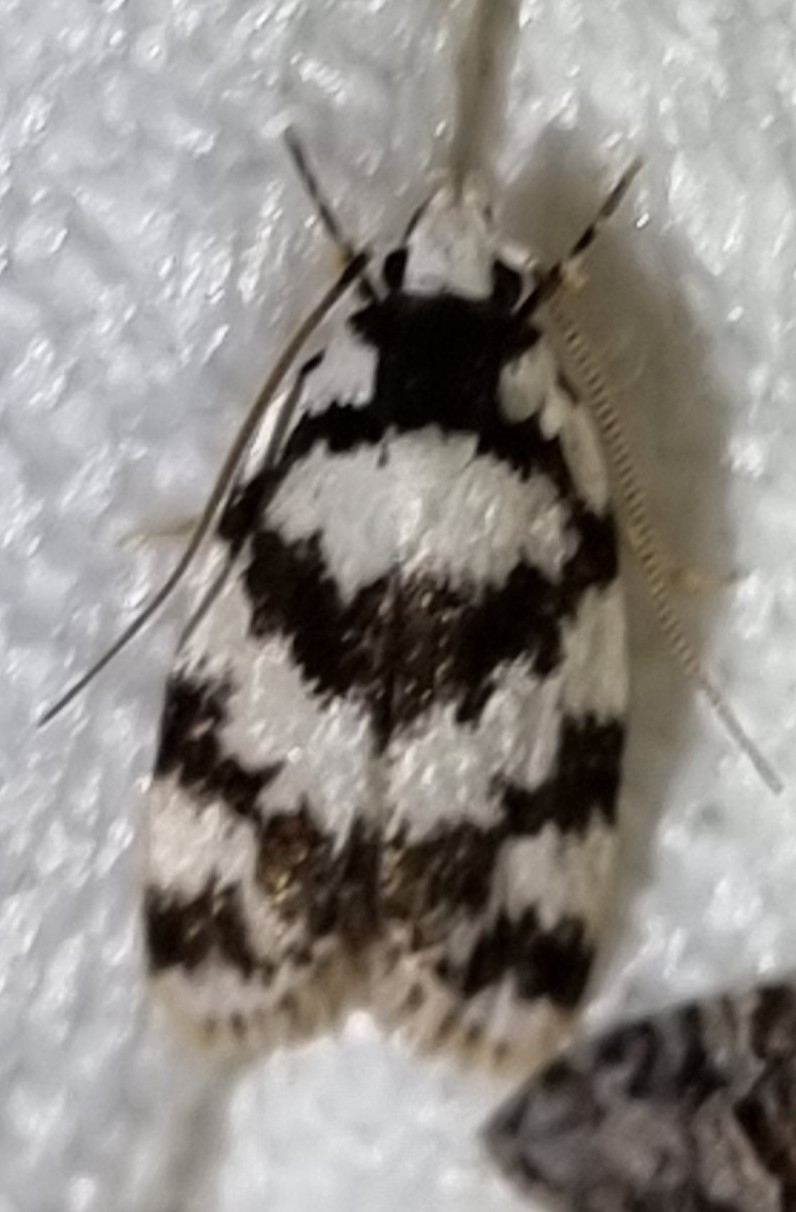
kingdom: Animalia
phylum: Arthropoda
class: Insecta
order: Lepidoptera
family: Oecophoridae
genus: Barea
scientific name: Barea leucocephala
